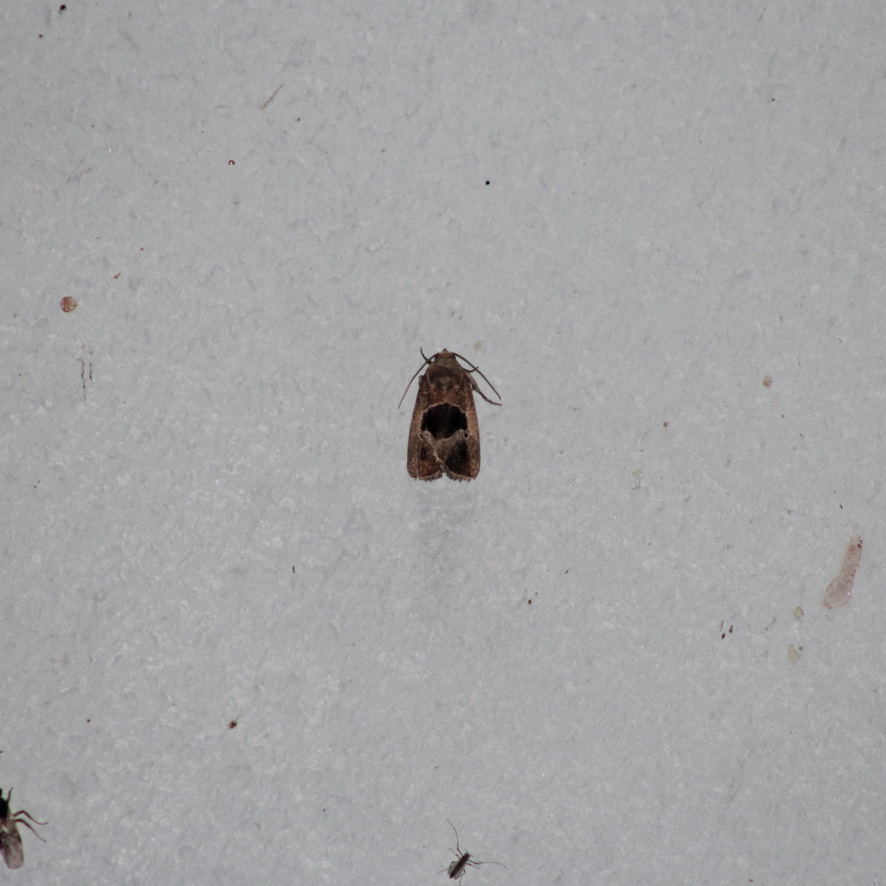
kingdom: Animalia
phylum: Arthropoda
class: Insecta
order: Lepidoptera
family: Noctuidae
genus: Elaphria
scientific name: Elaphria deltoides
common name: Cutworm moth
